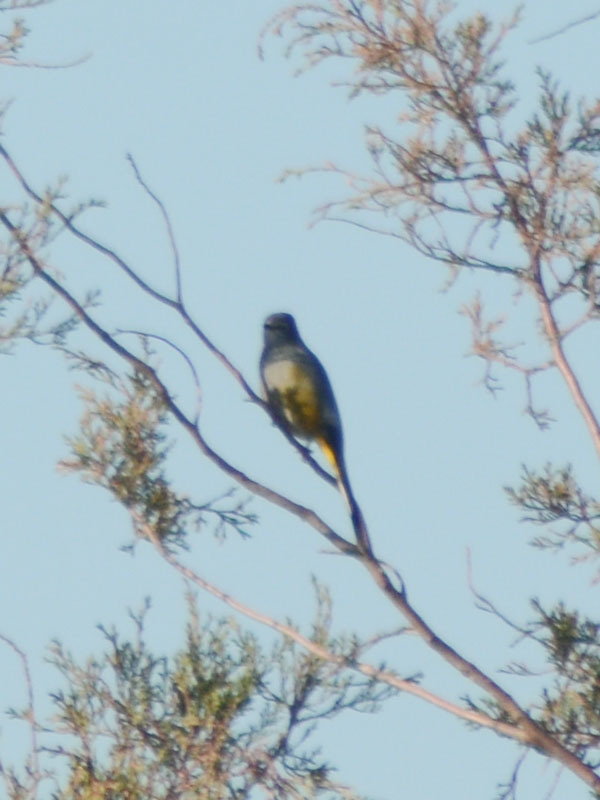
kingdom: Animalia
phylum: Chordata
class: Aves
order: Passeriformes
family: Ptilogonatidae
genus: Ptilogonys
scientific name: Ptilogonys cinereus
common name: Gray silky-flycatcher
